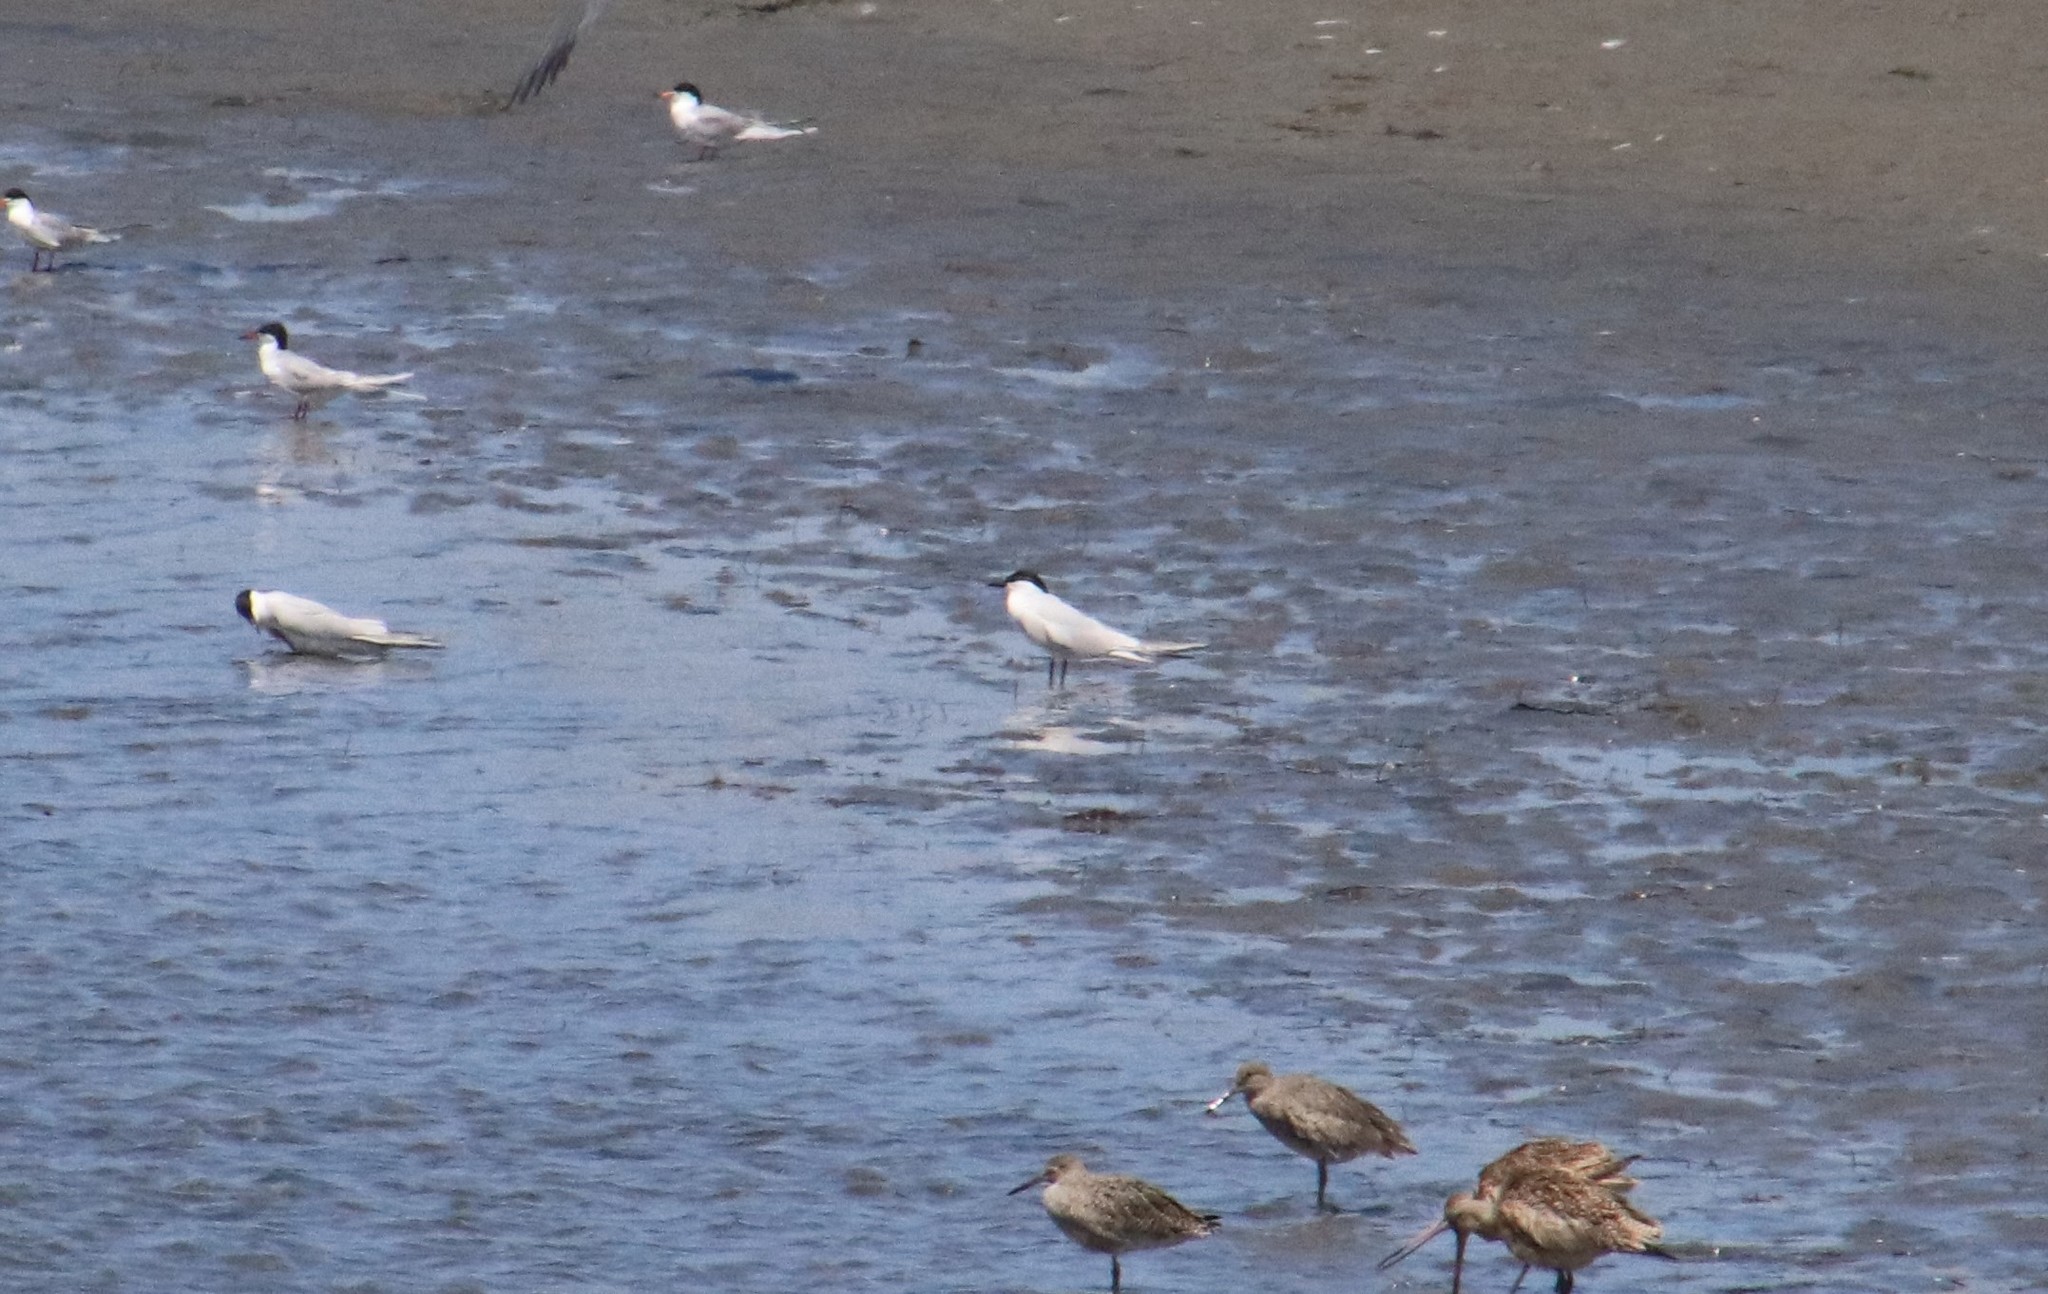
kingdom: Animalia
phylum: Chordata
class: Aves
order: Charadriiformes
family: Laridae
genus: Gelochelidon
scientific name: Gelochelidon nilotica
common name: Gull-billed tern
